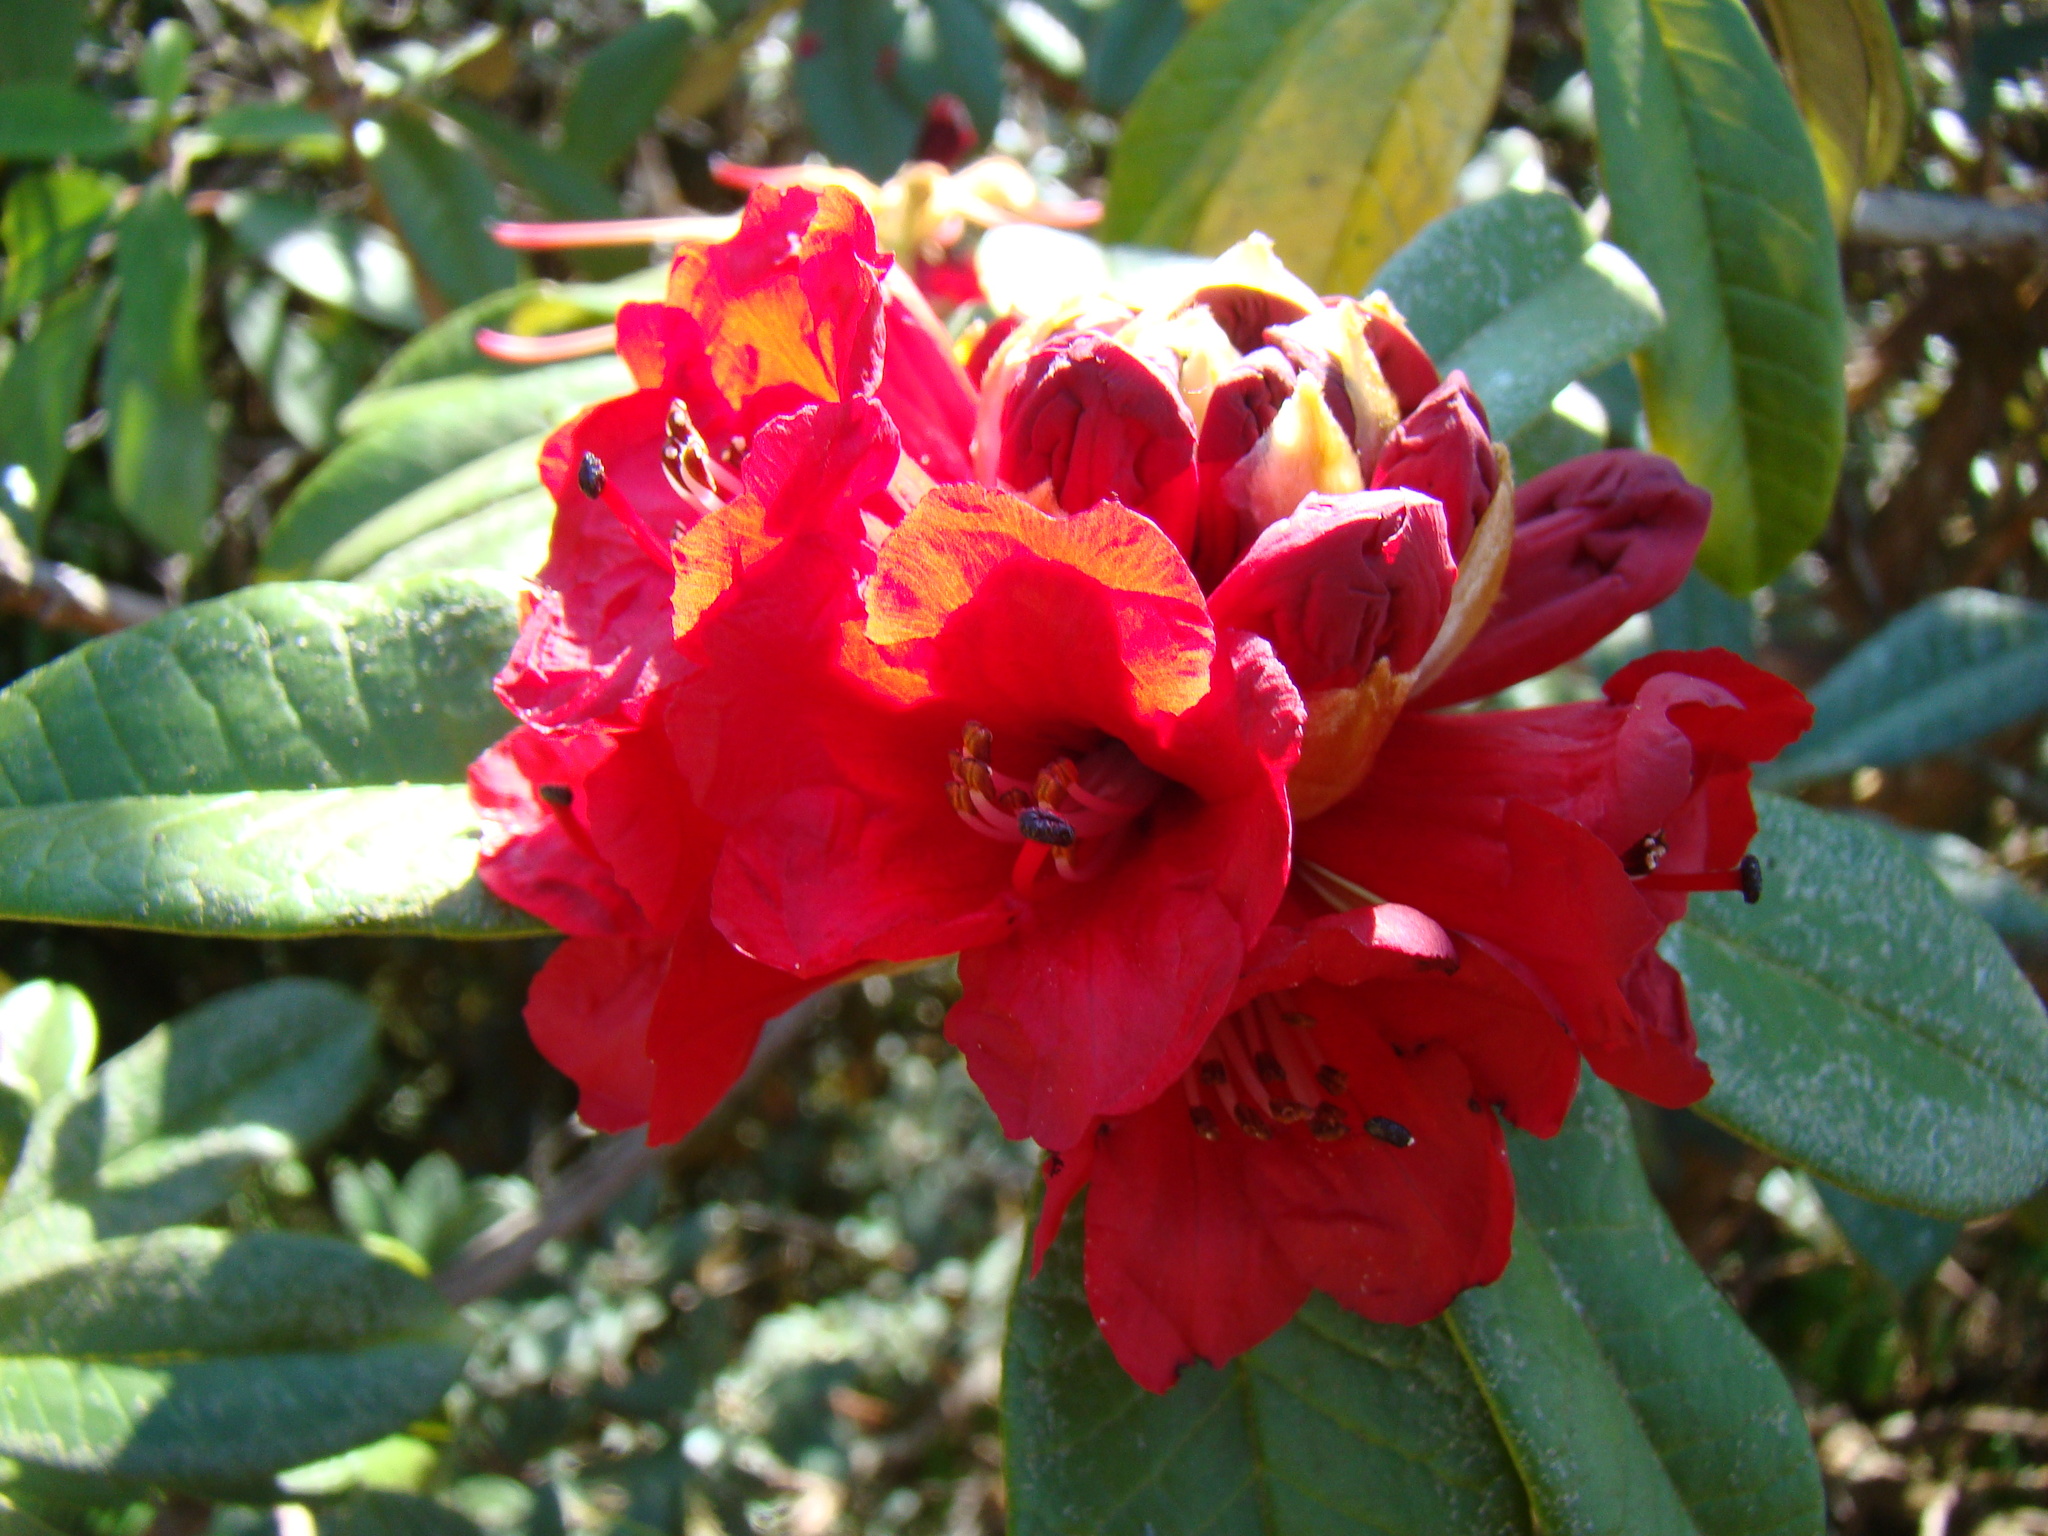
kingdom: Plantae
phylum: Tracheophyta
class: Magnoliopsida
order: Ericales
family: Ericaceae
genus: Rhododendron
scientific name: Rhododendron delavayi
